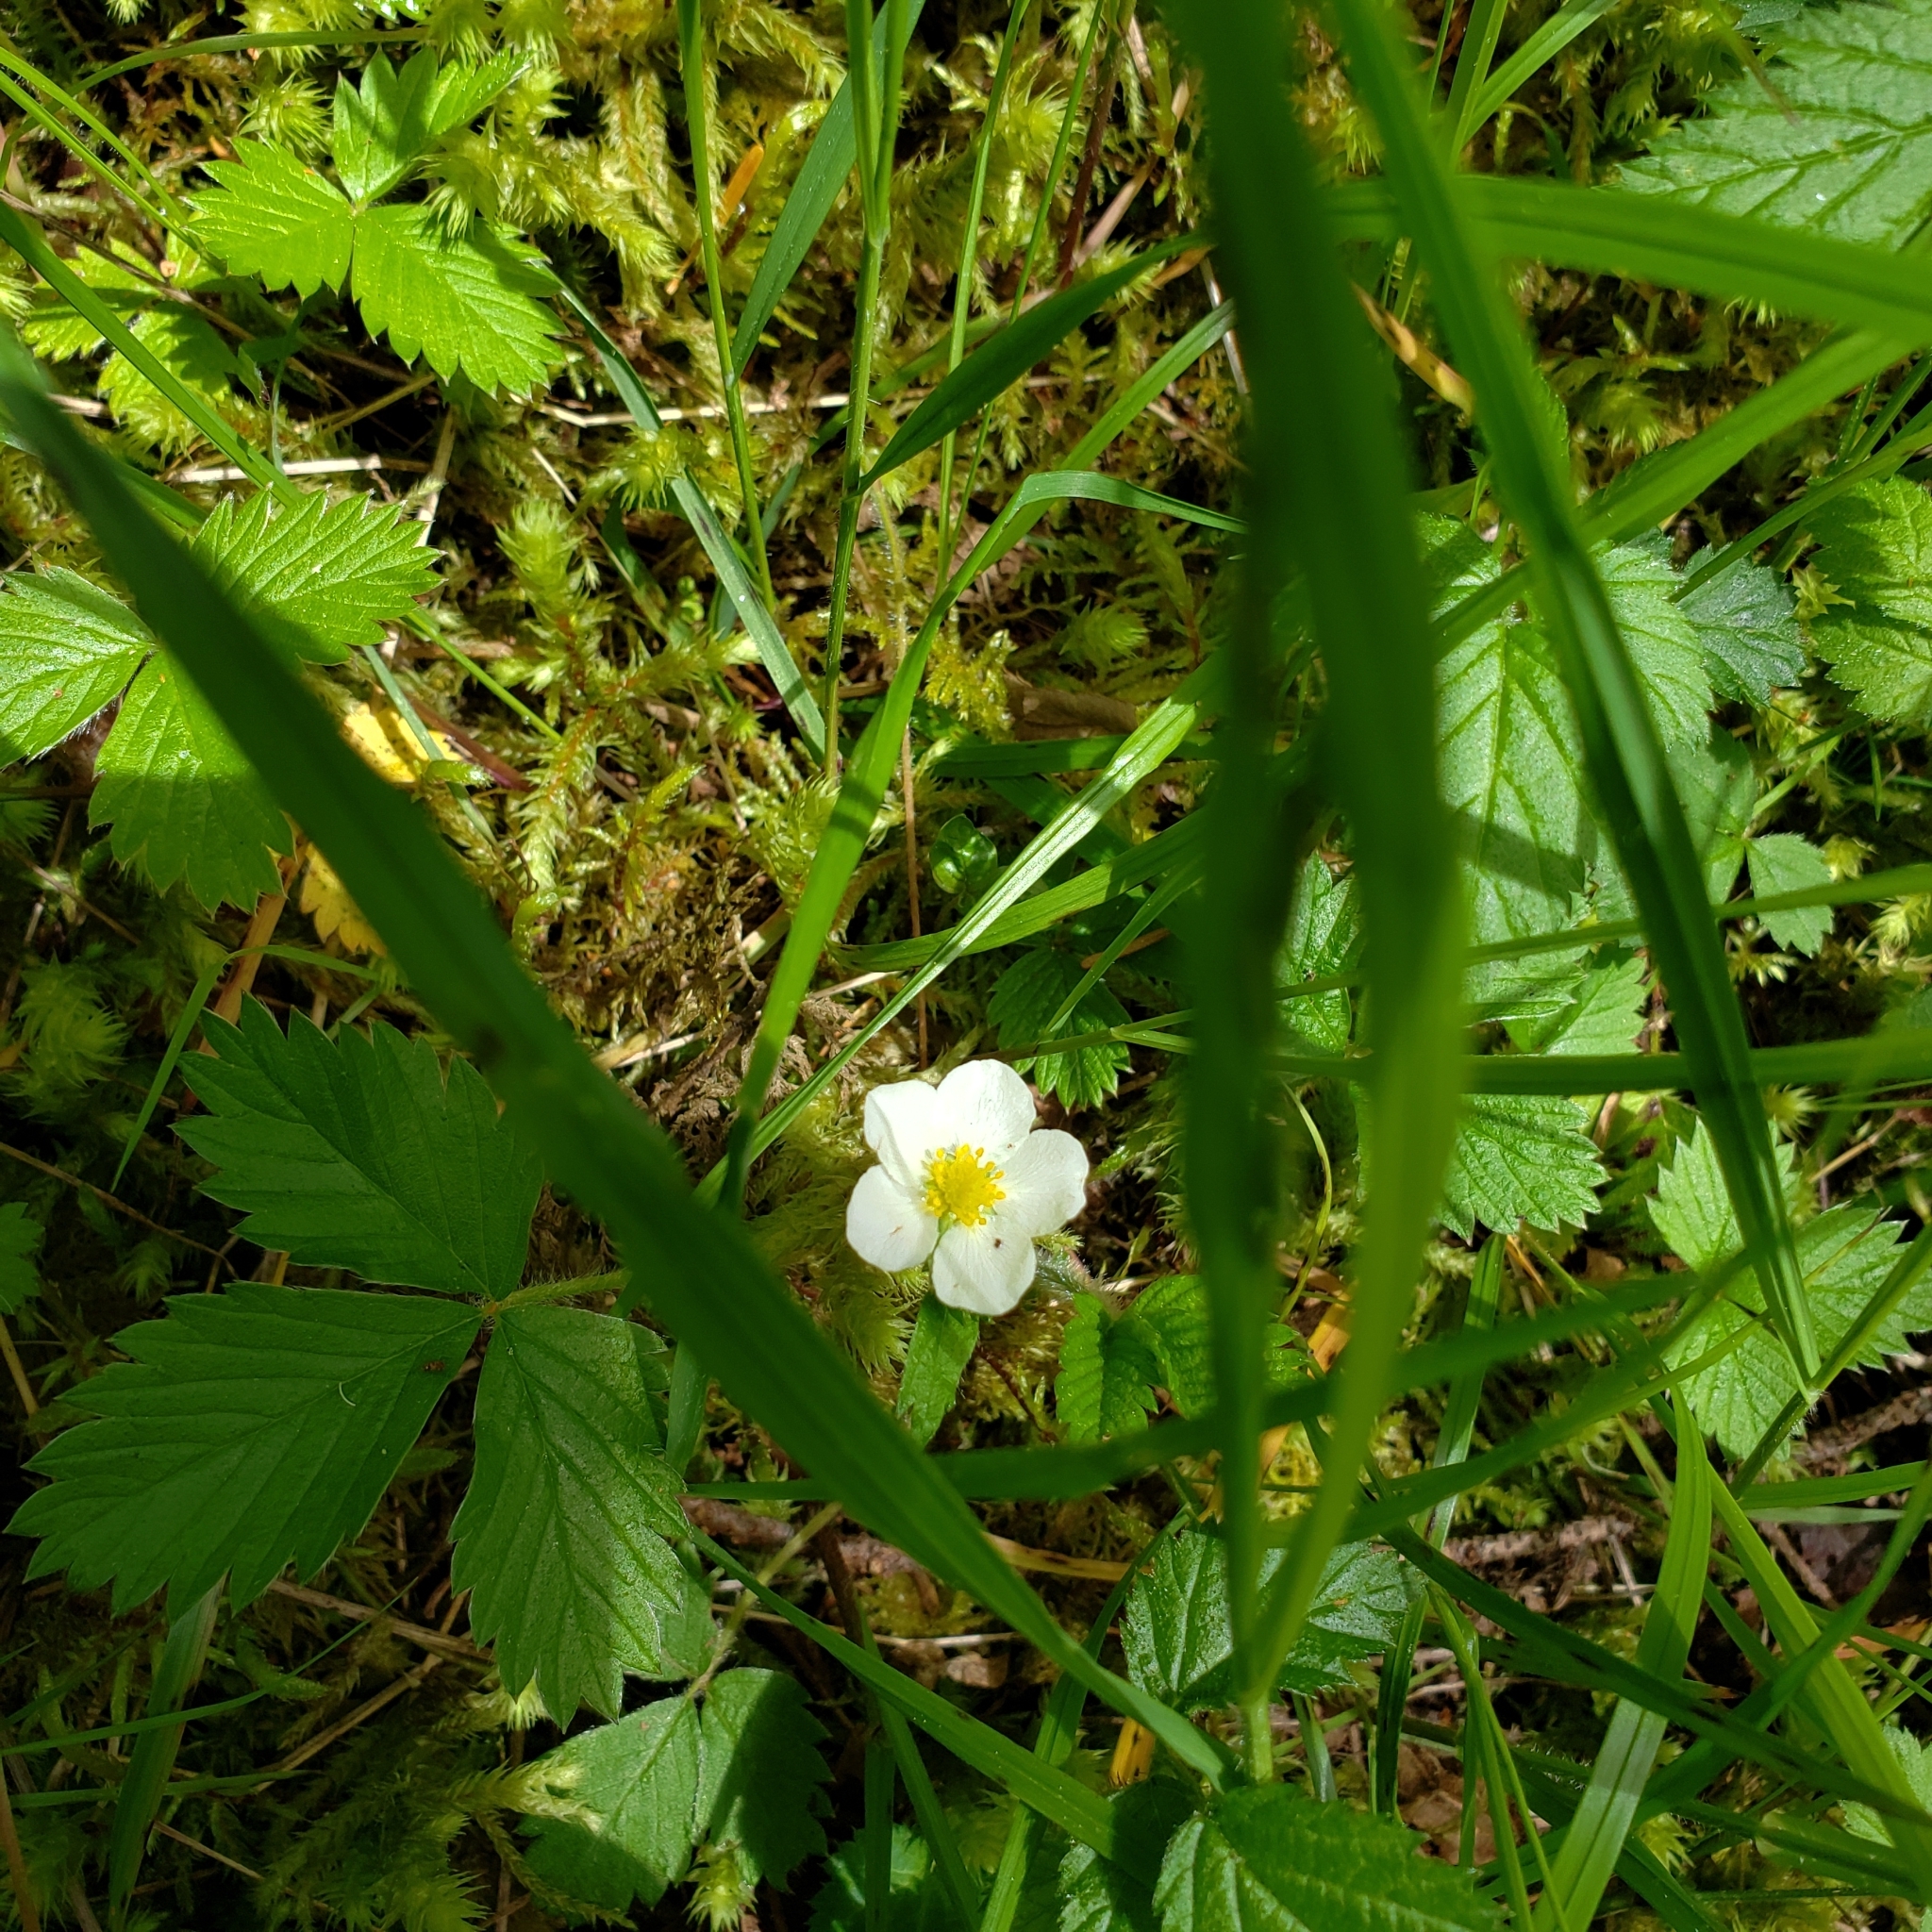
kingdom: Plantae
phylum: Tracheophyta
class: Magnoliopsida
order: Rosales
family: Rosaceae
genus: Fragaria
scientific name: Fragaria vesca
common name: Wild strawberry
